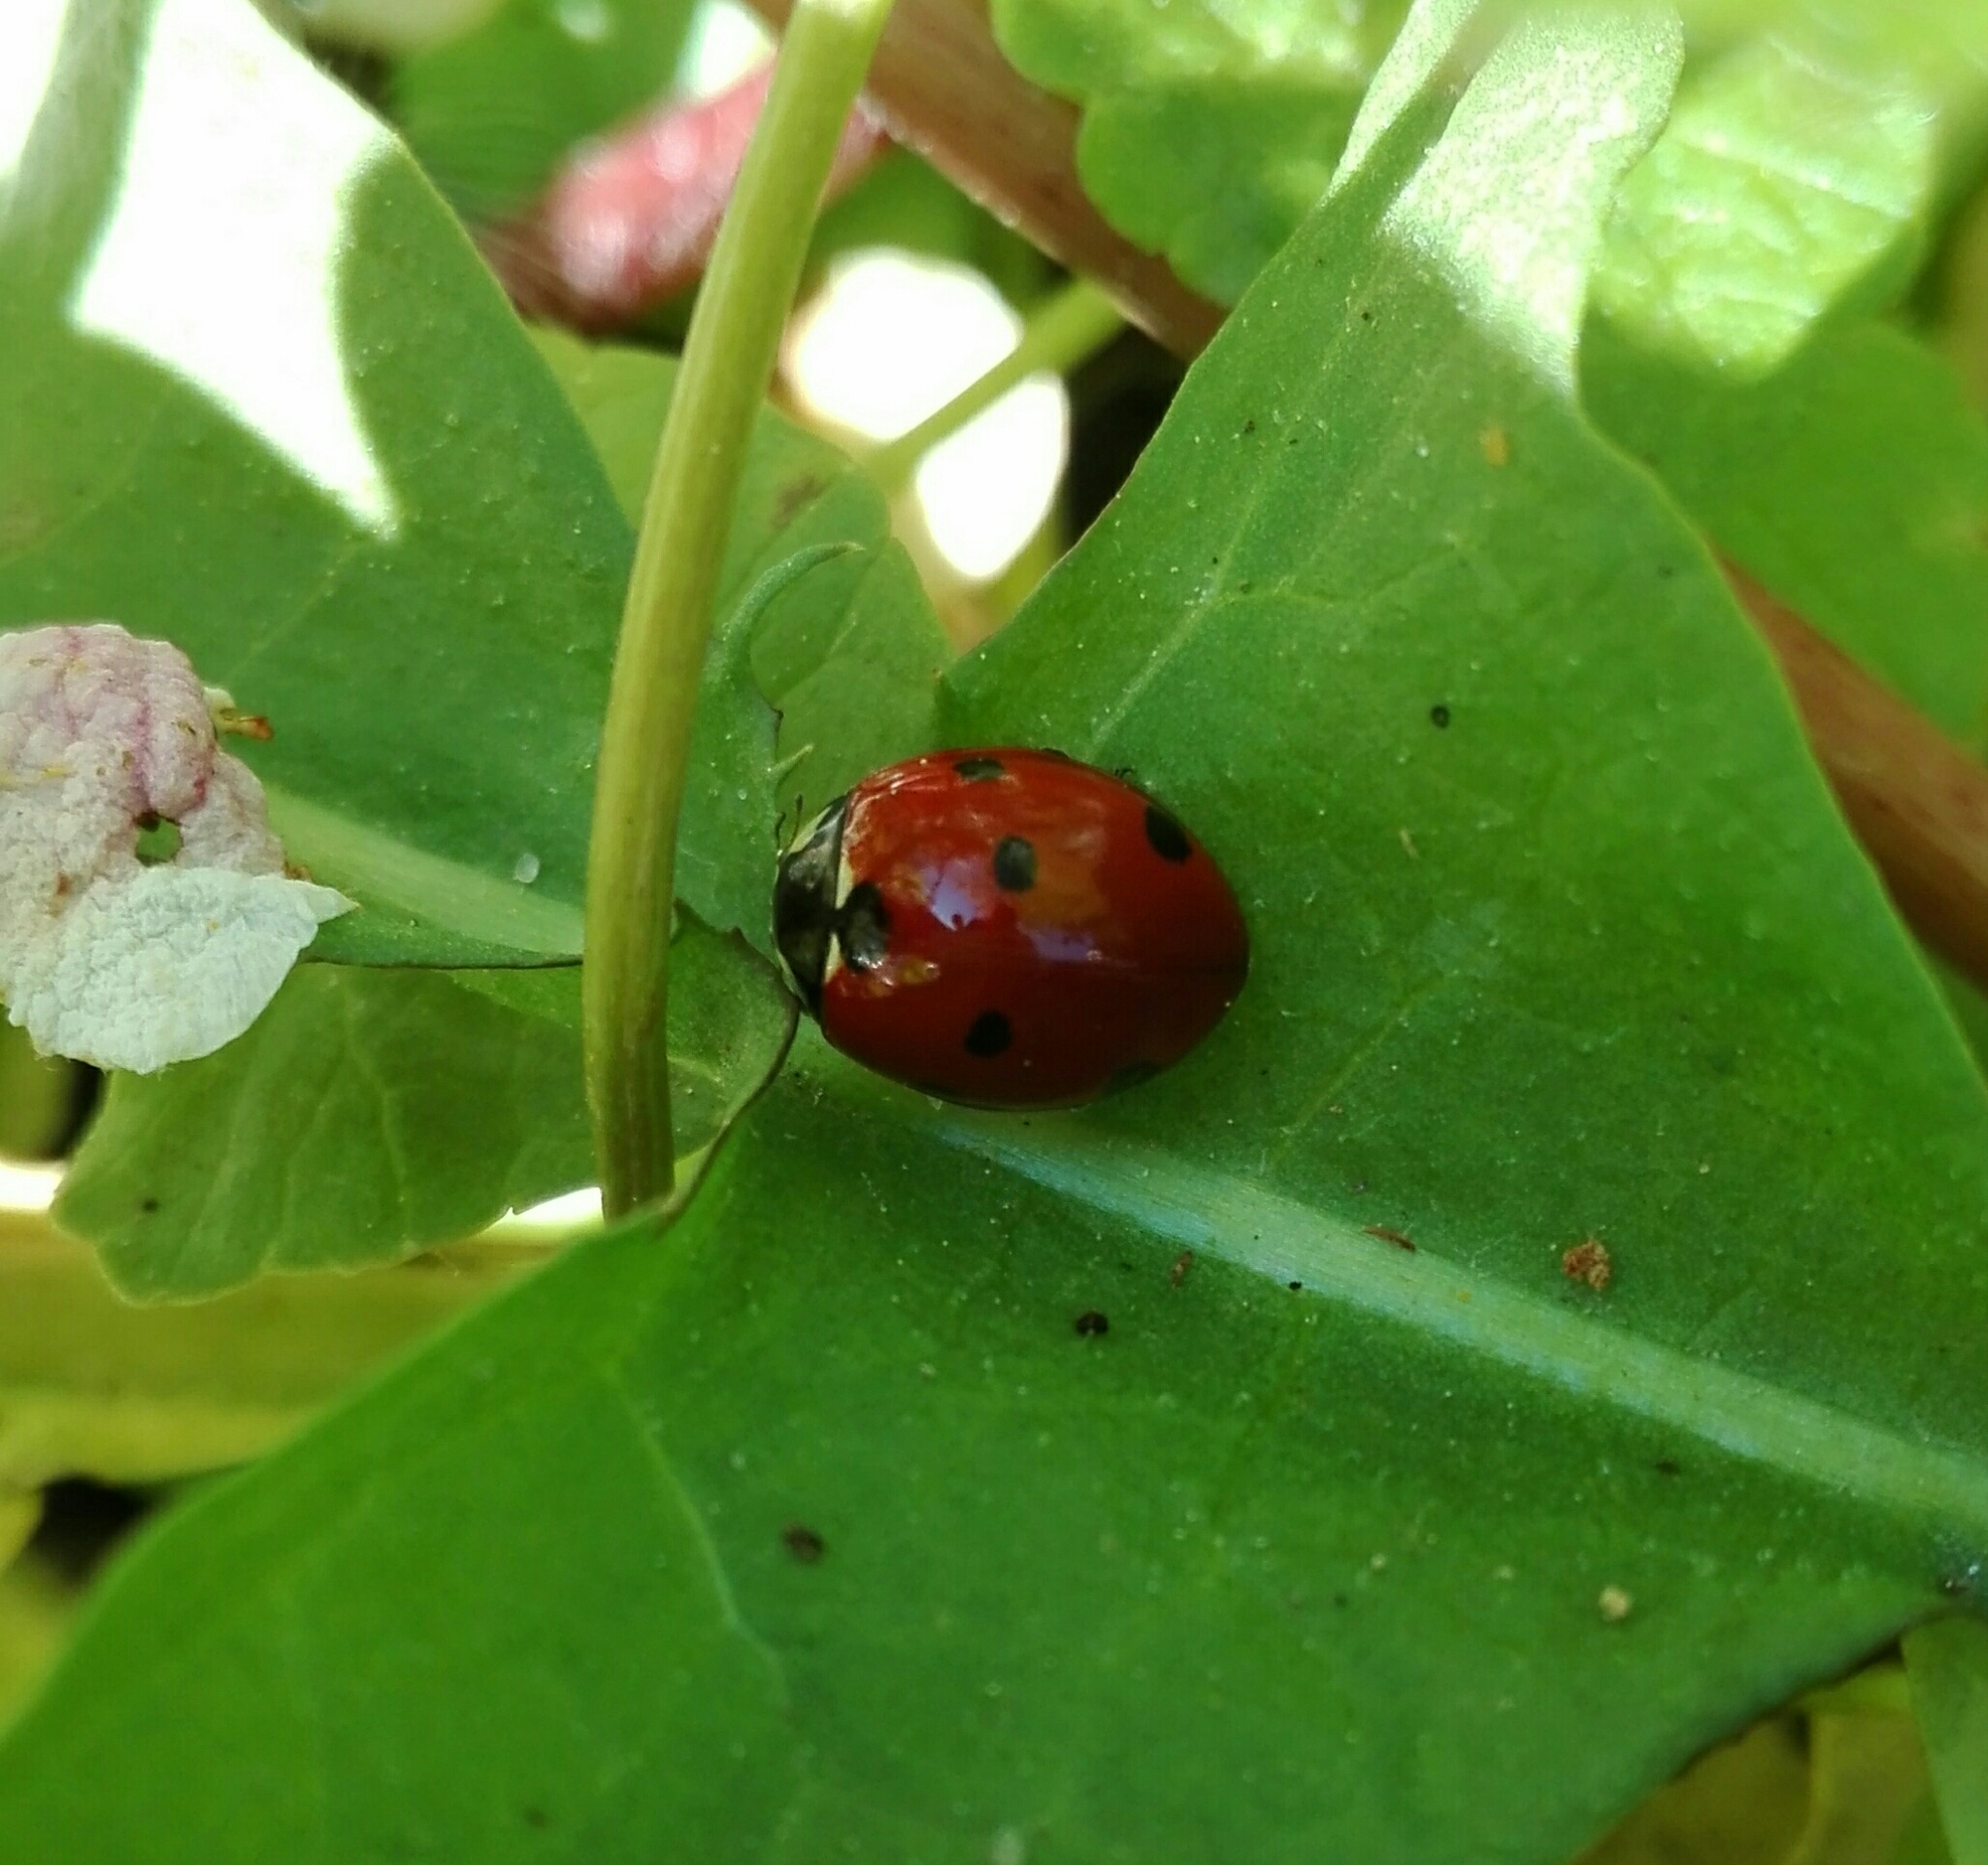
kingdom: Animalia
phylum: Arthropoda
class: Insecta
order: Coleoptera
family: Coccinellidae
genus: Coccinella
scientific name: Coccinella septempunctata
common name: Sevenspotted lady beetle
